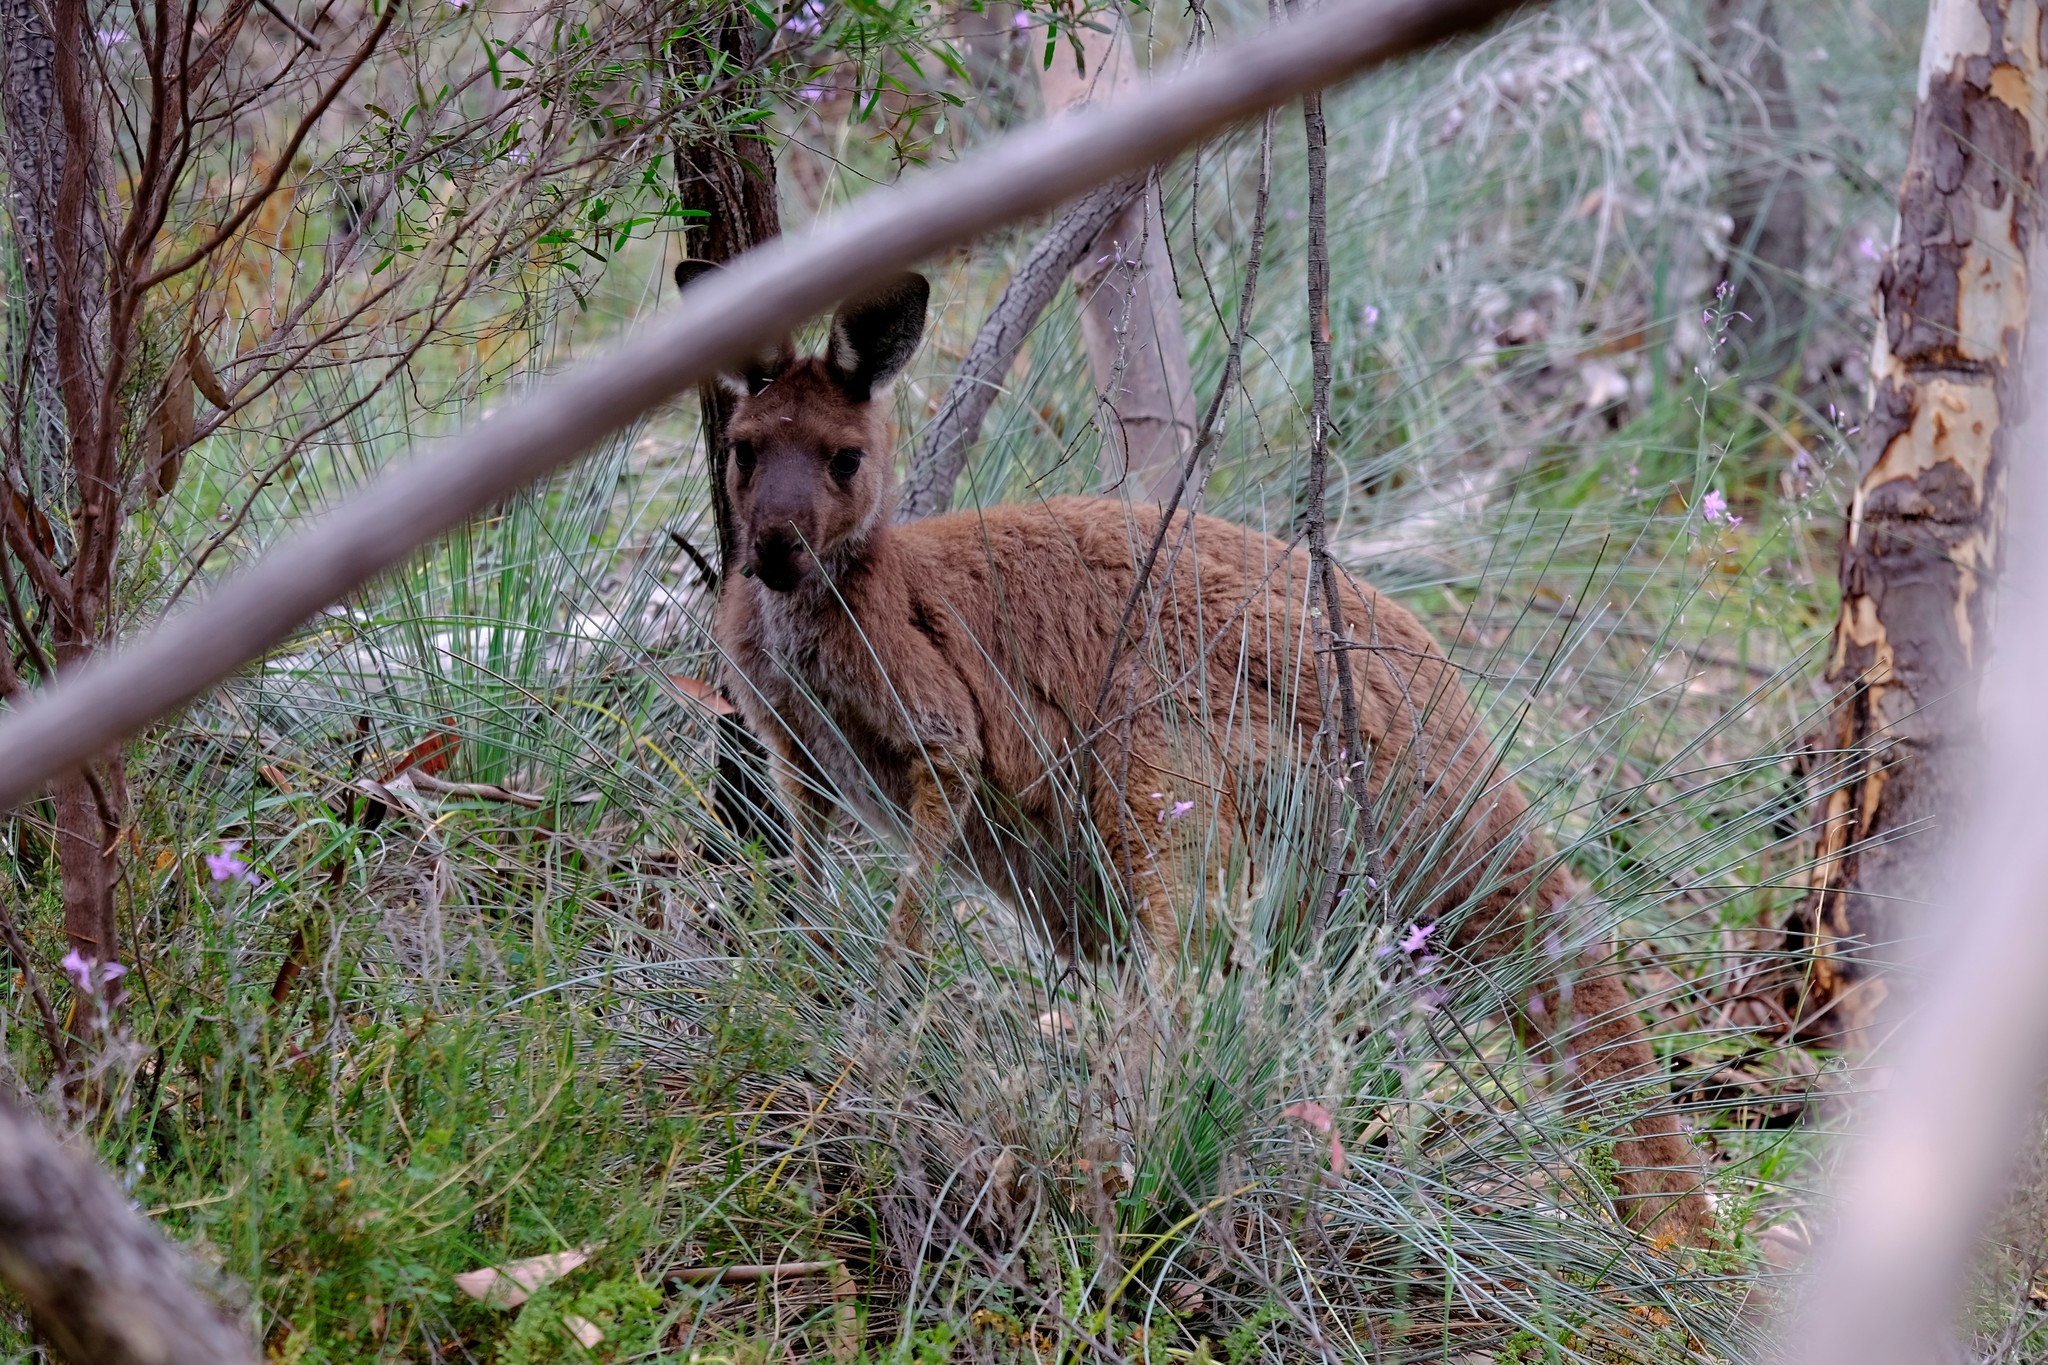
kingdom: Animalia
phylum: Chordata
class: Mammalia
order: Diprotodontia
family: Macropodidae
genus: Macropus
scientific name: Macropus fuliginosus
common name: Western grey kangaroo
